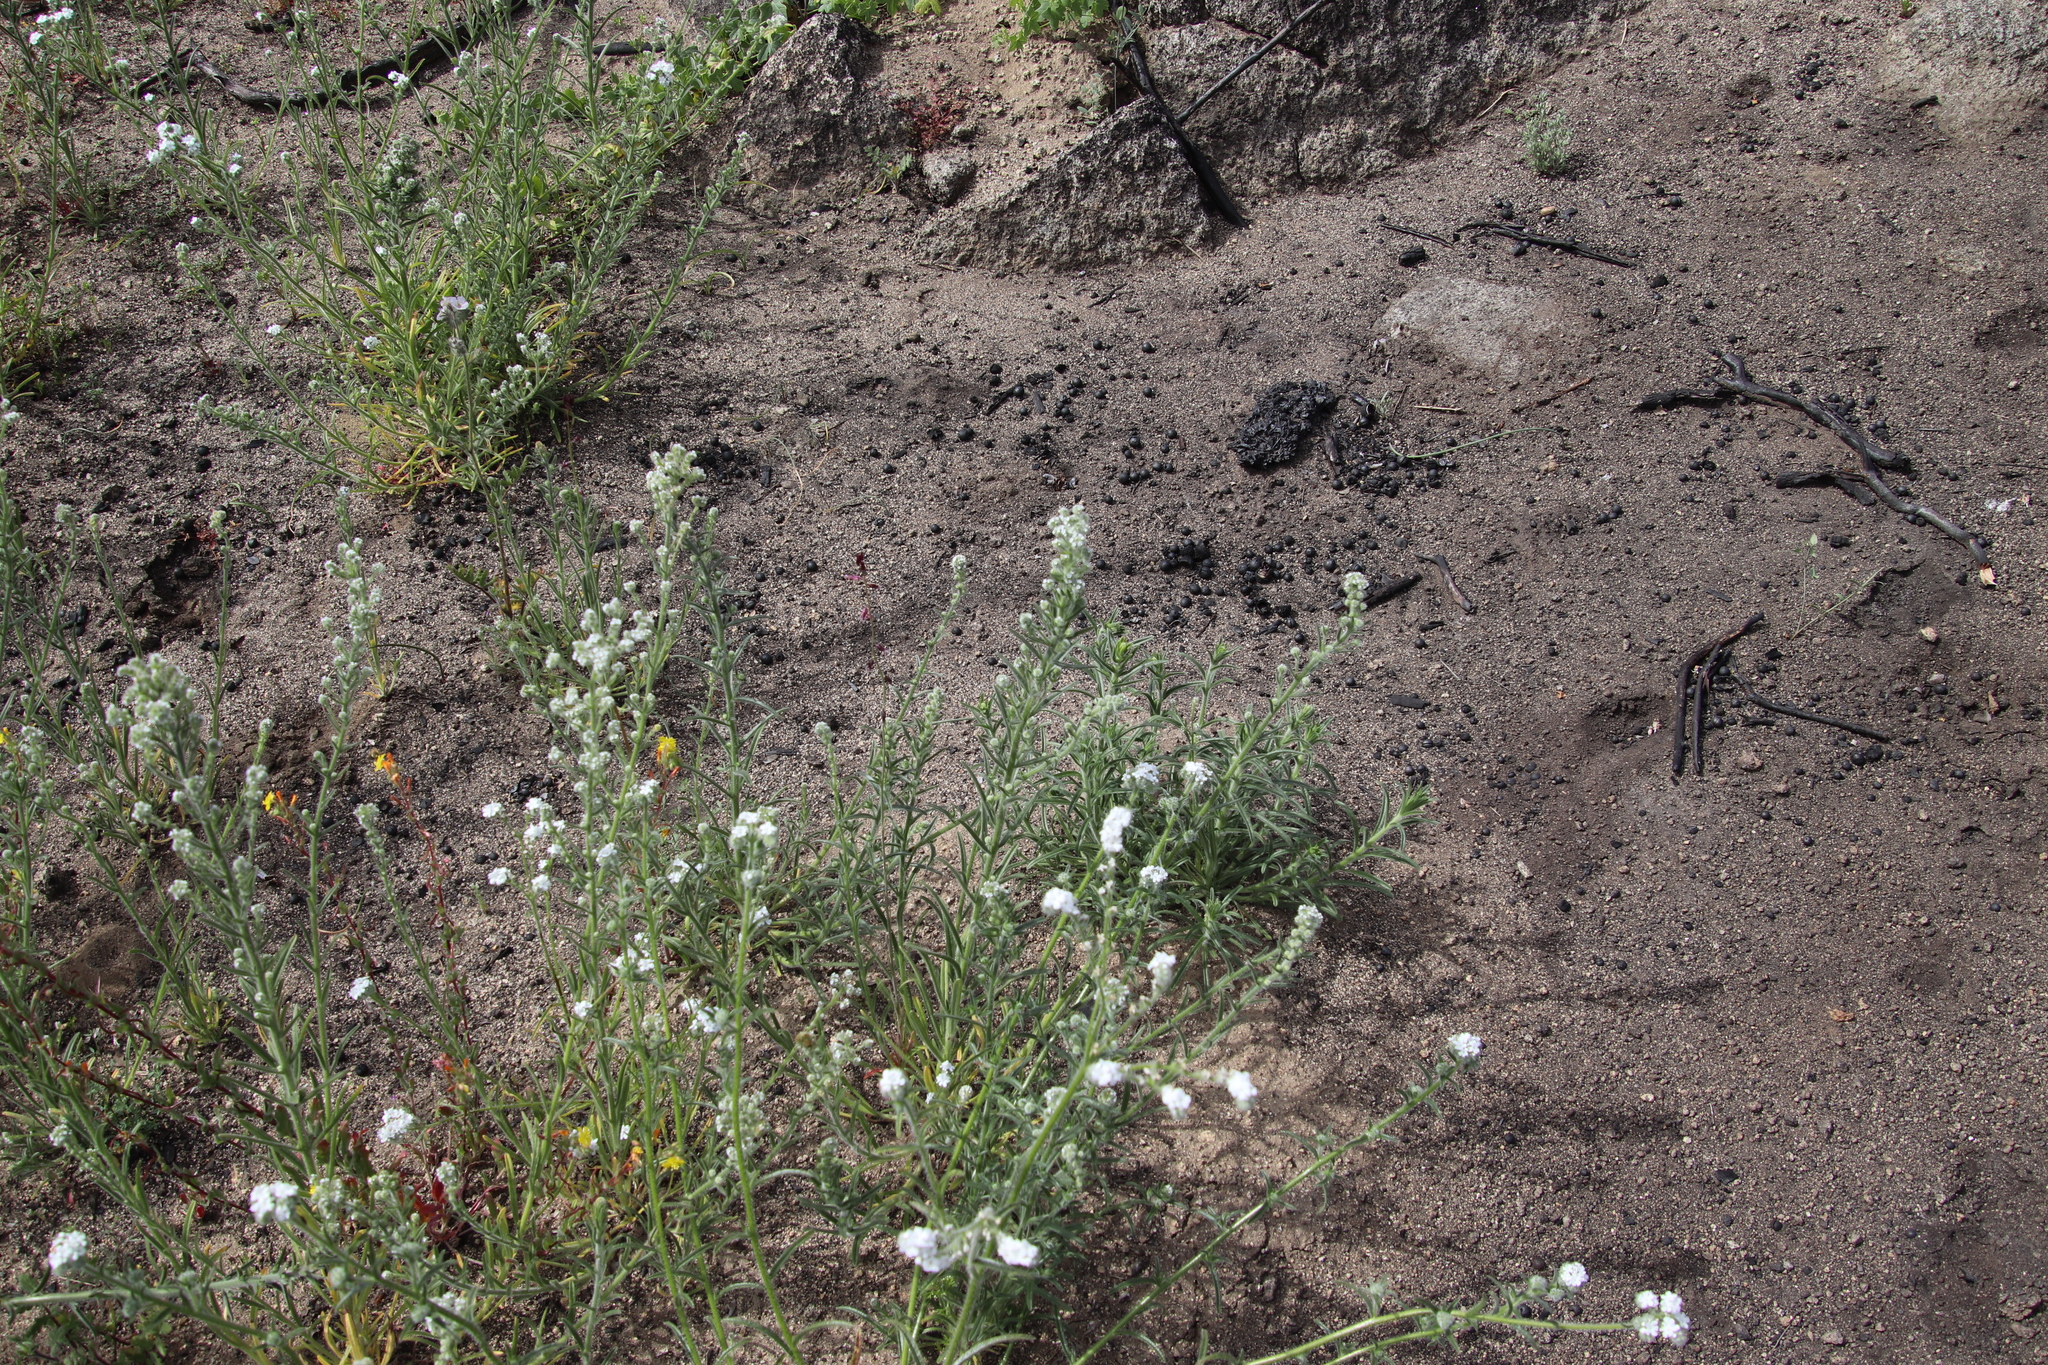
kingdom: Plantae
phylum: Tracheophyta
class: Magnoliopsida
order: Boraginales
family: Boraginaceae
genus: Cryptantha
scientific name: Cryptantha muricata
